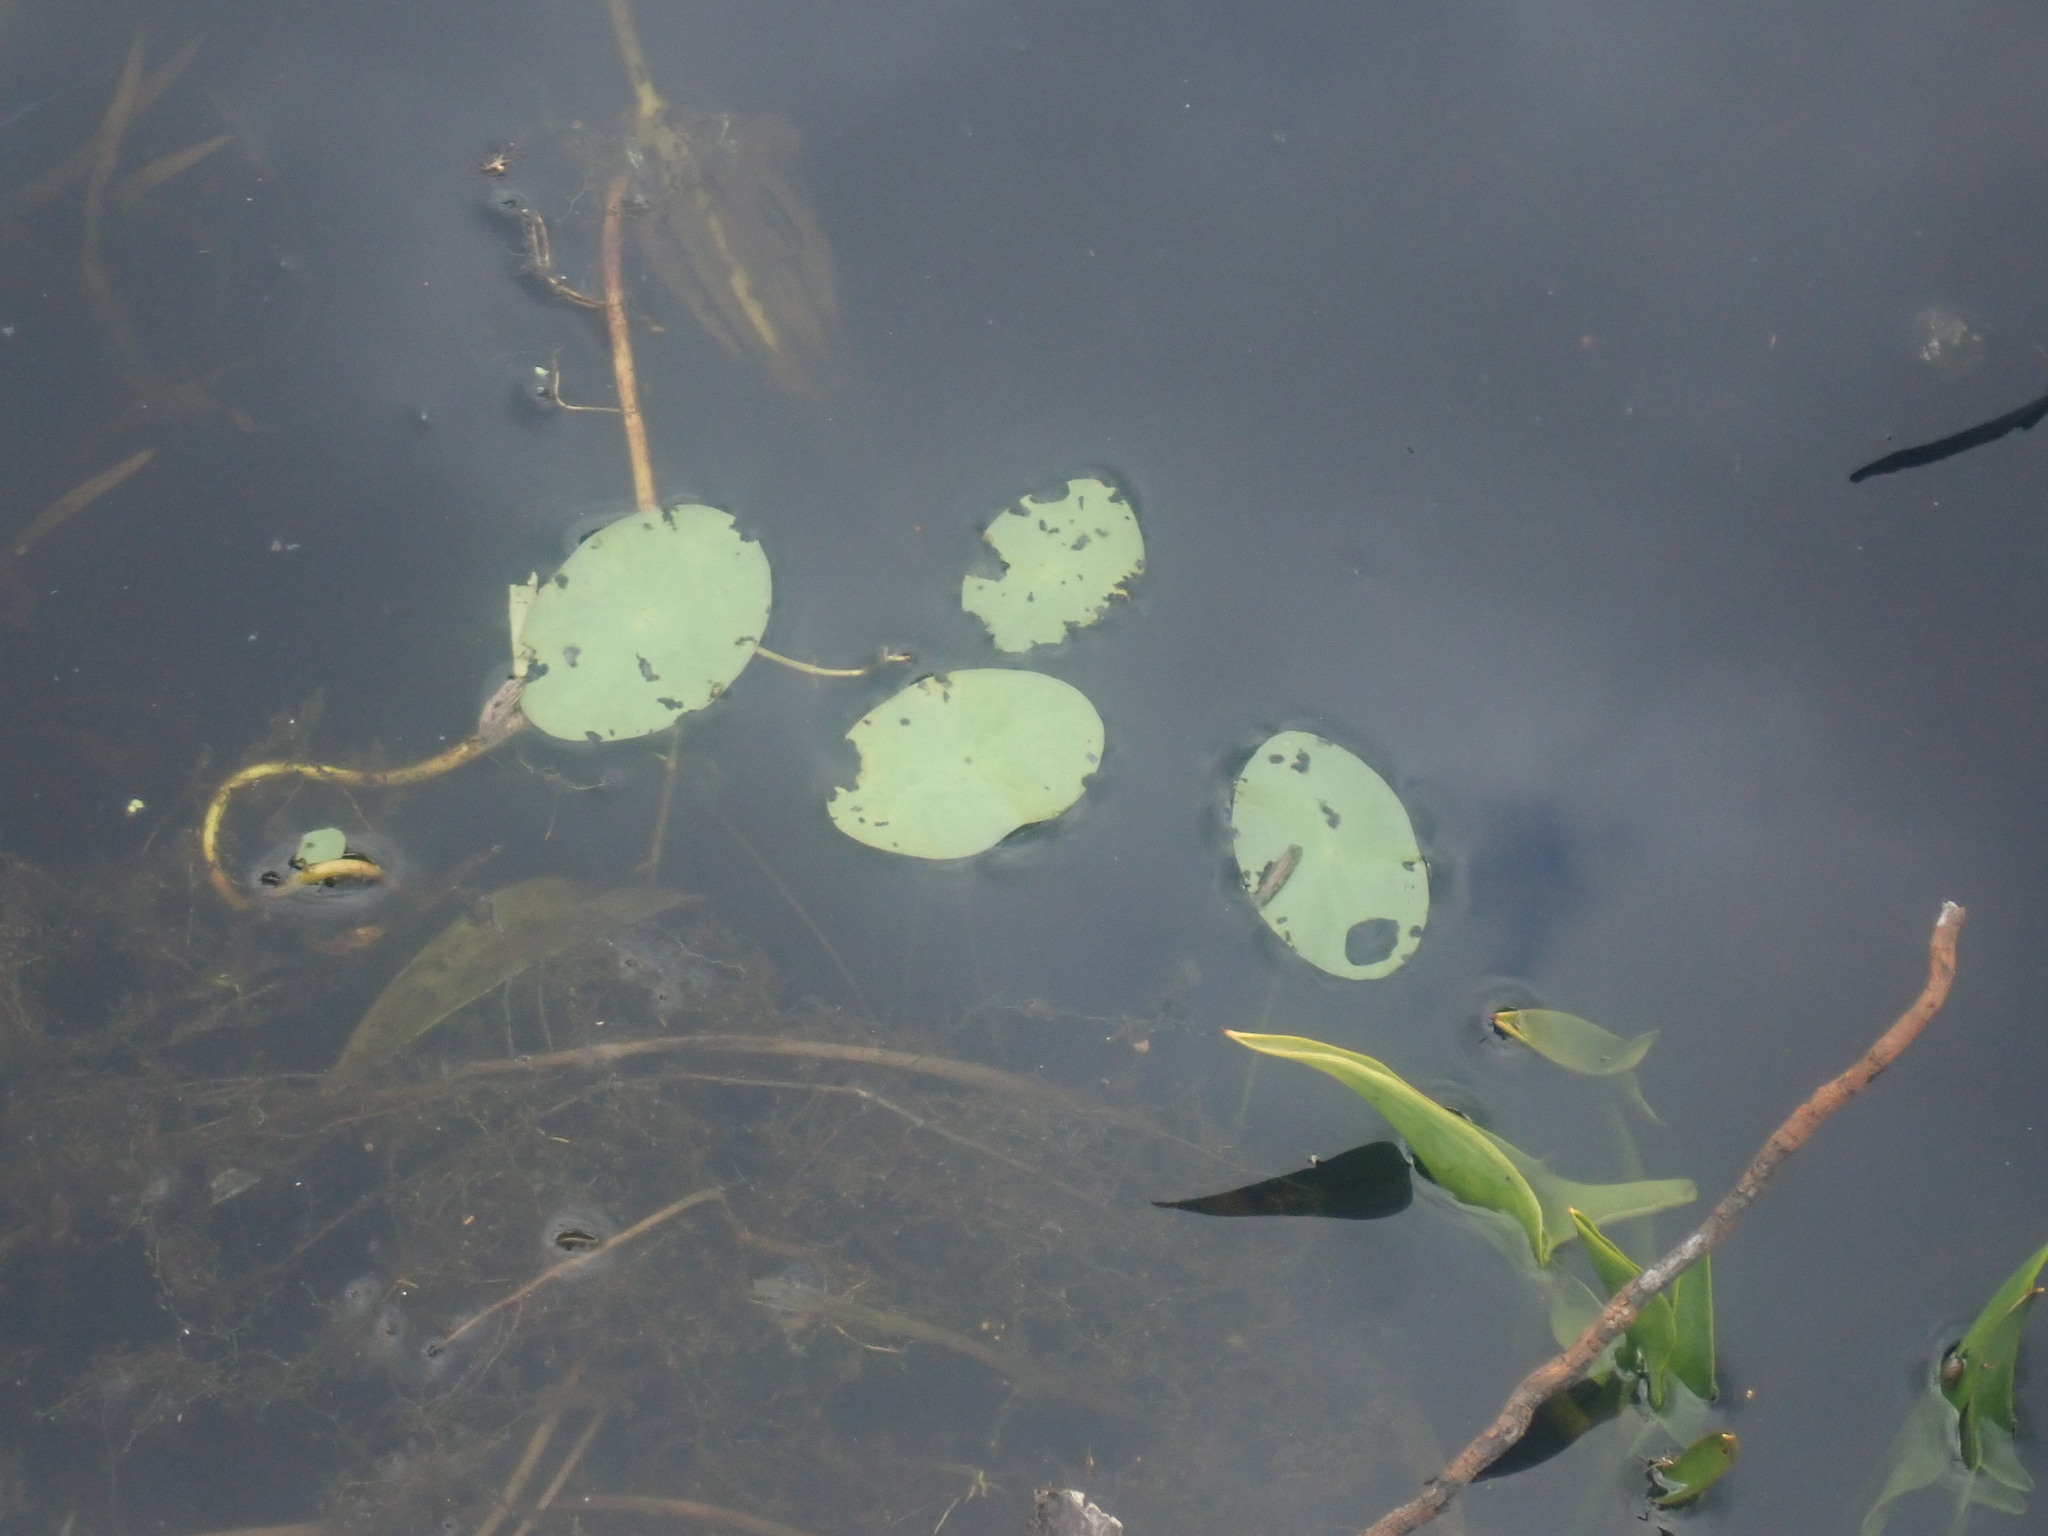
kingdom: Plantae
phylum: Tracheophyta
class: Magnoliopsida
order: Nymphaeales
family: Cabombaceae
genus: Brasenia
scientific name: Brasenia schreberi
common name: Water-shield
